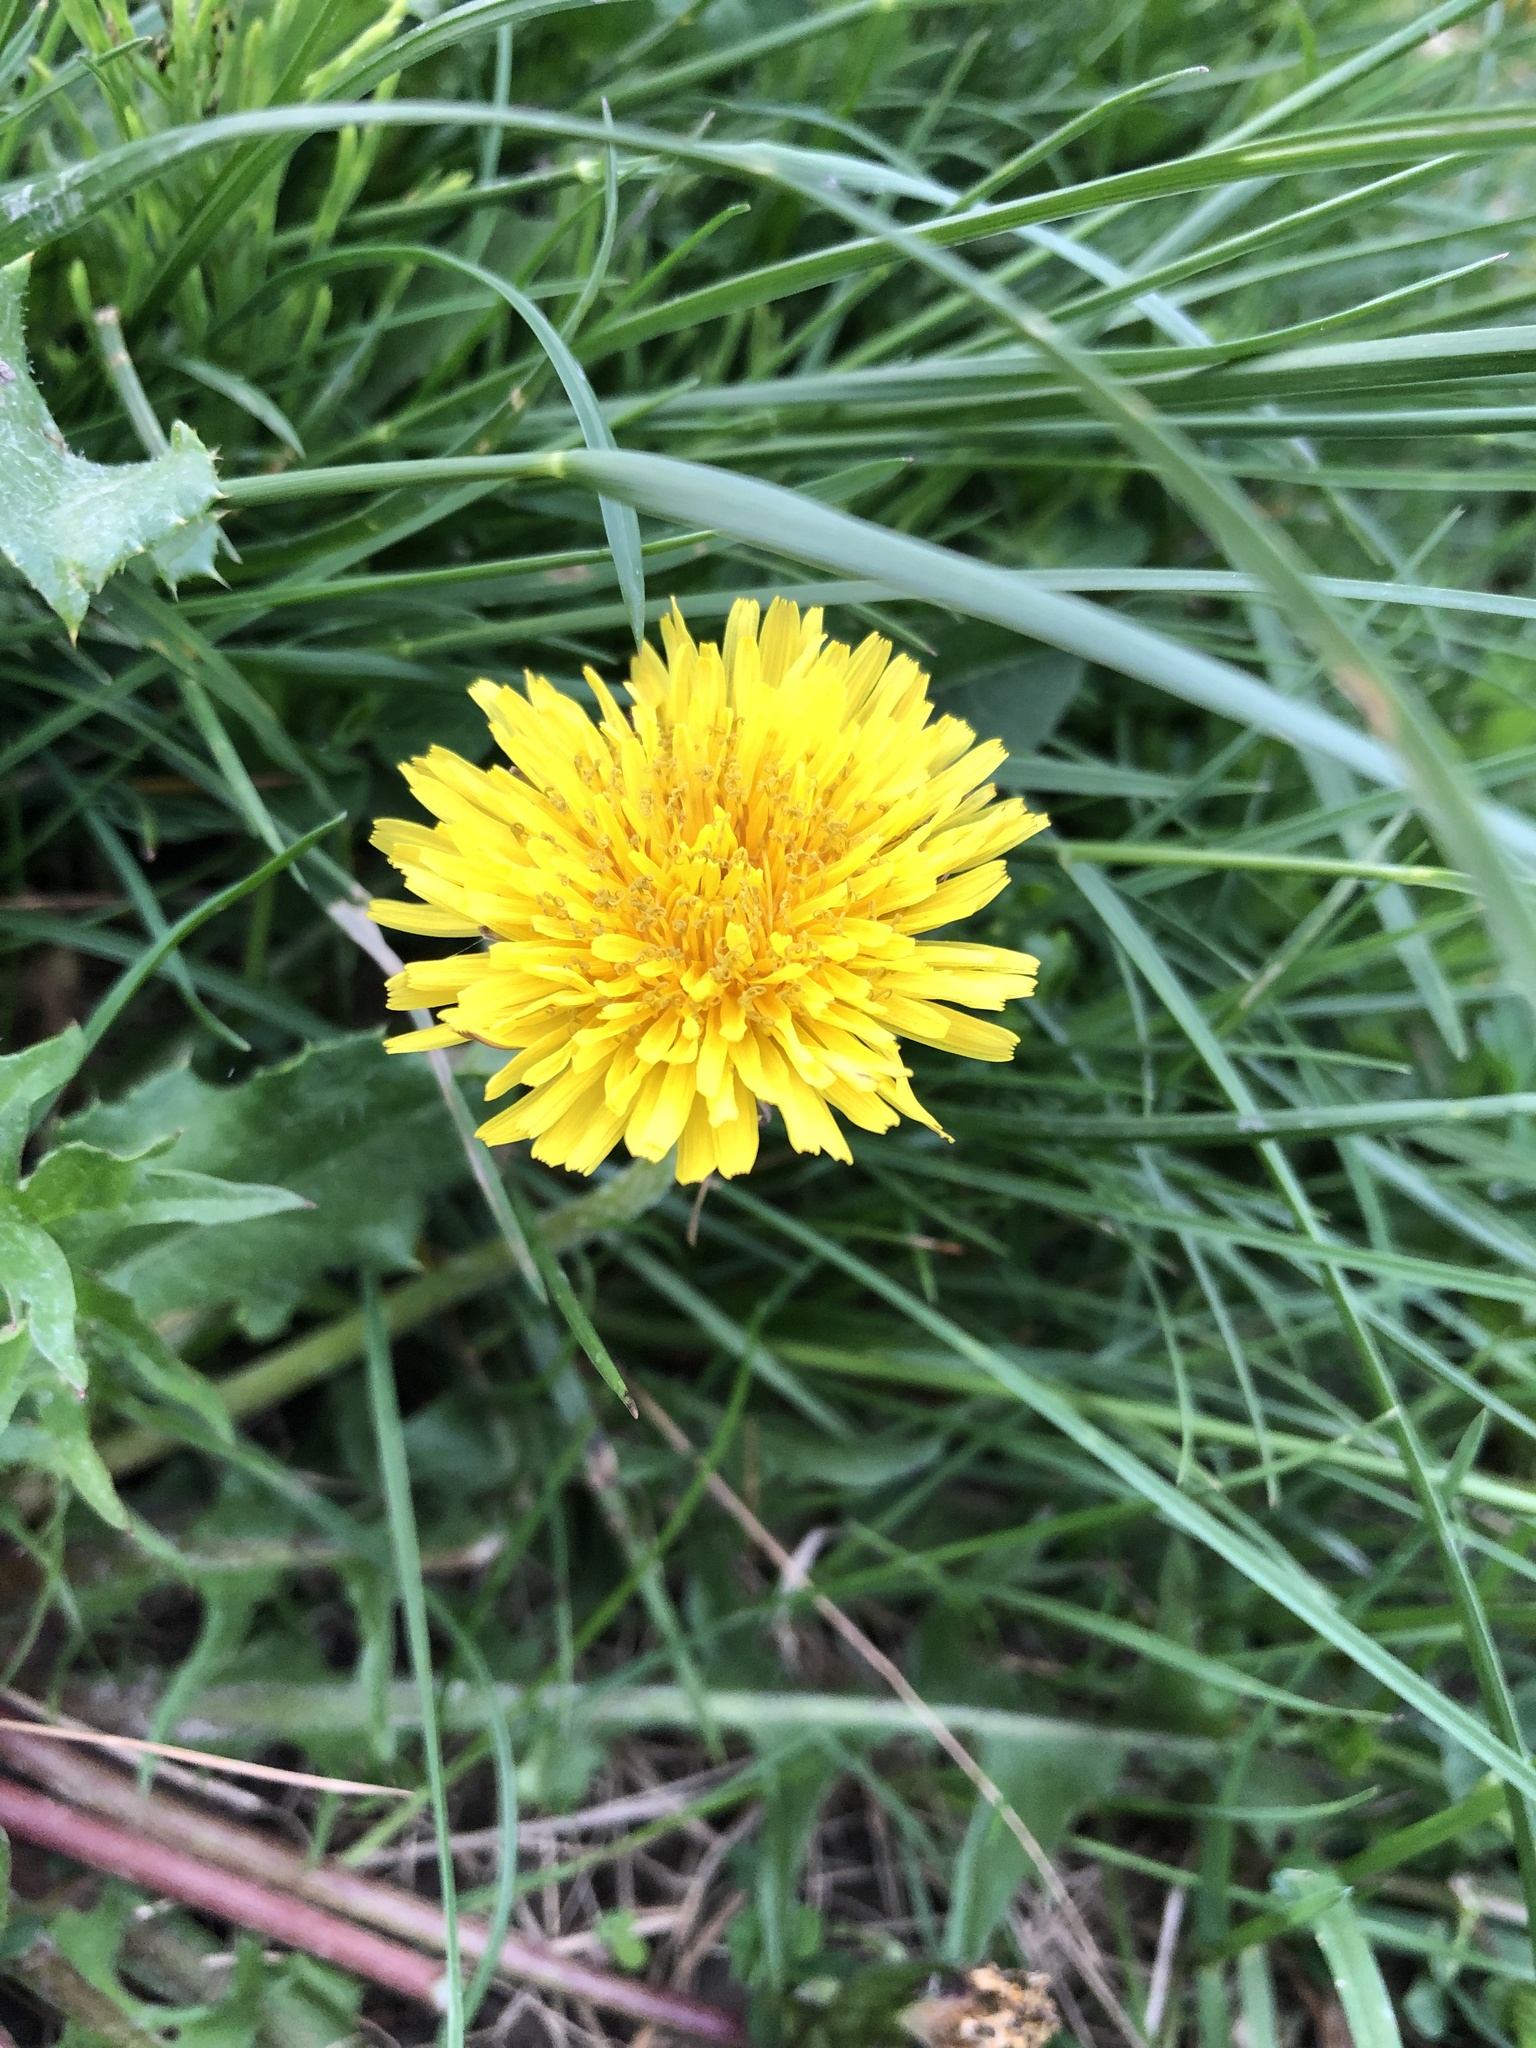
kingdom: Plantae
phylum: Tracheophyta
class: Magnoliopsida
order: Asterales
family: Asteraceae
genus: Taraxacum
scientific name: Taraxacum officinale
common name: Common dandelion
